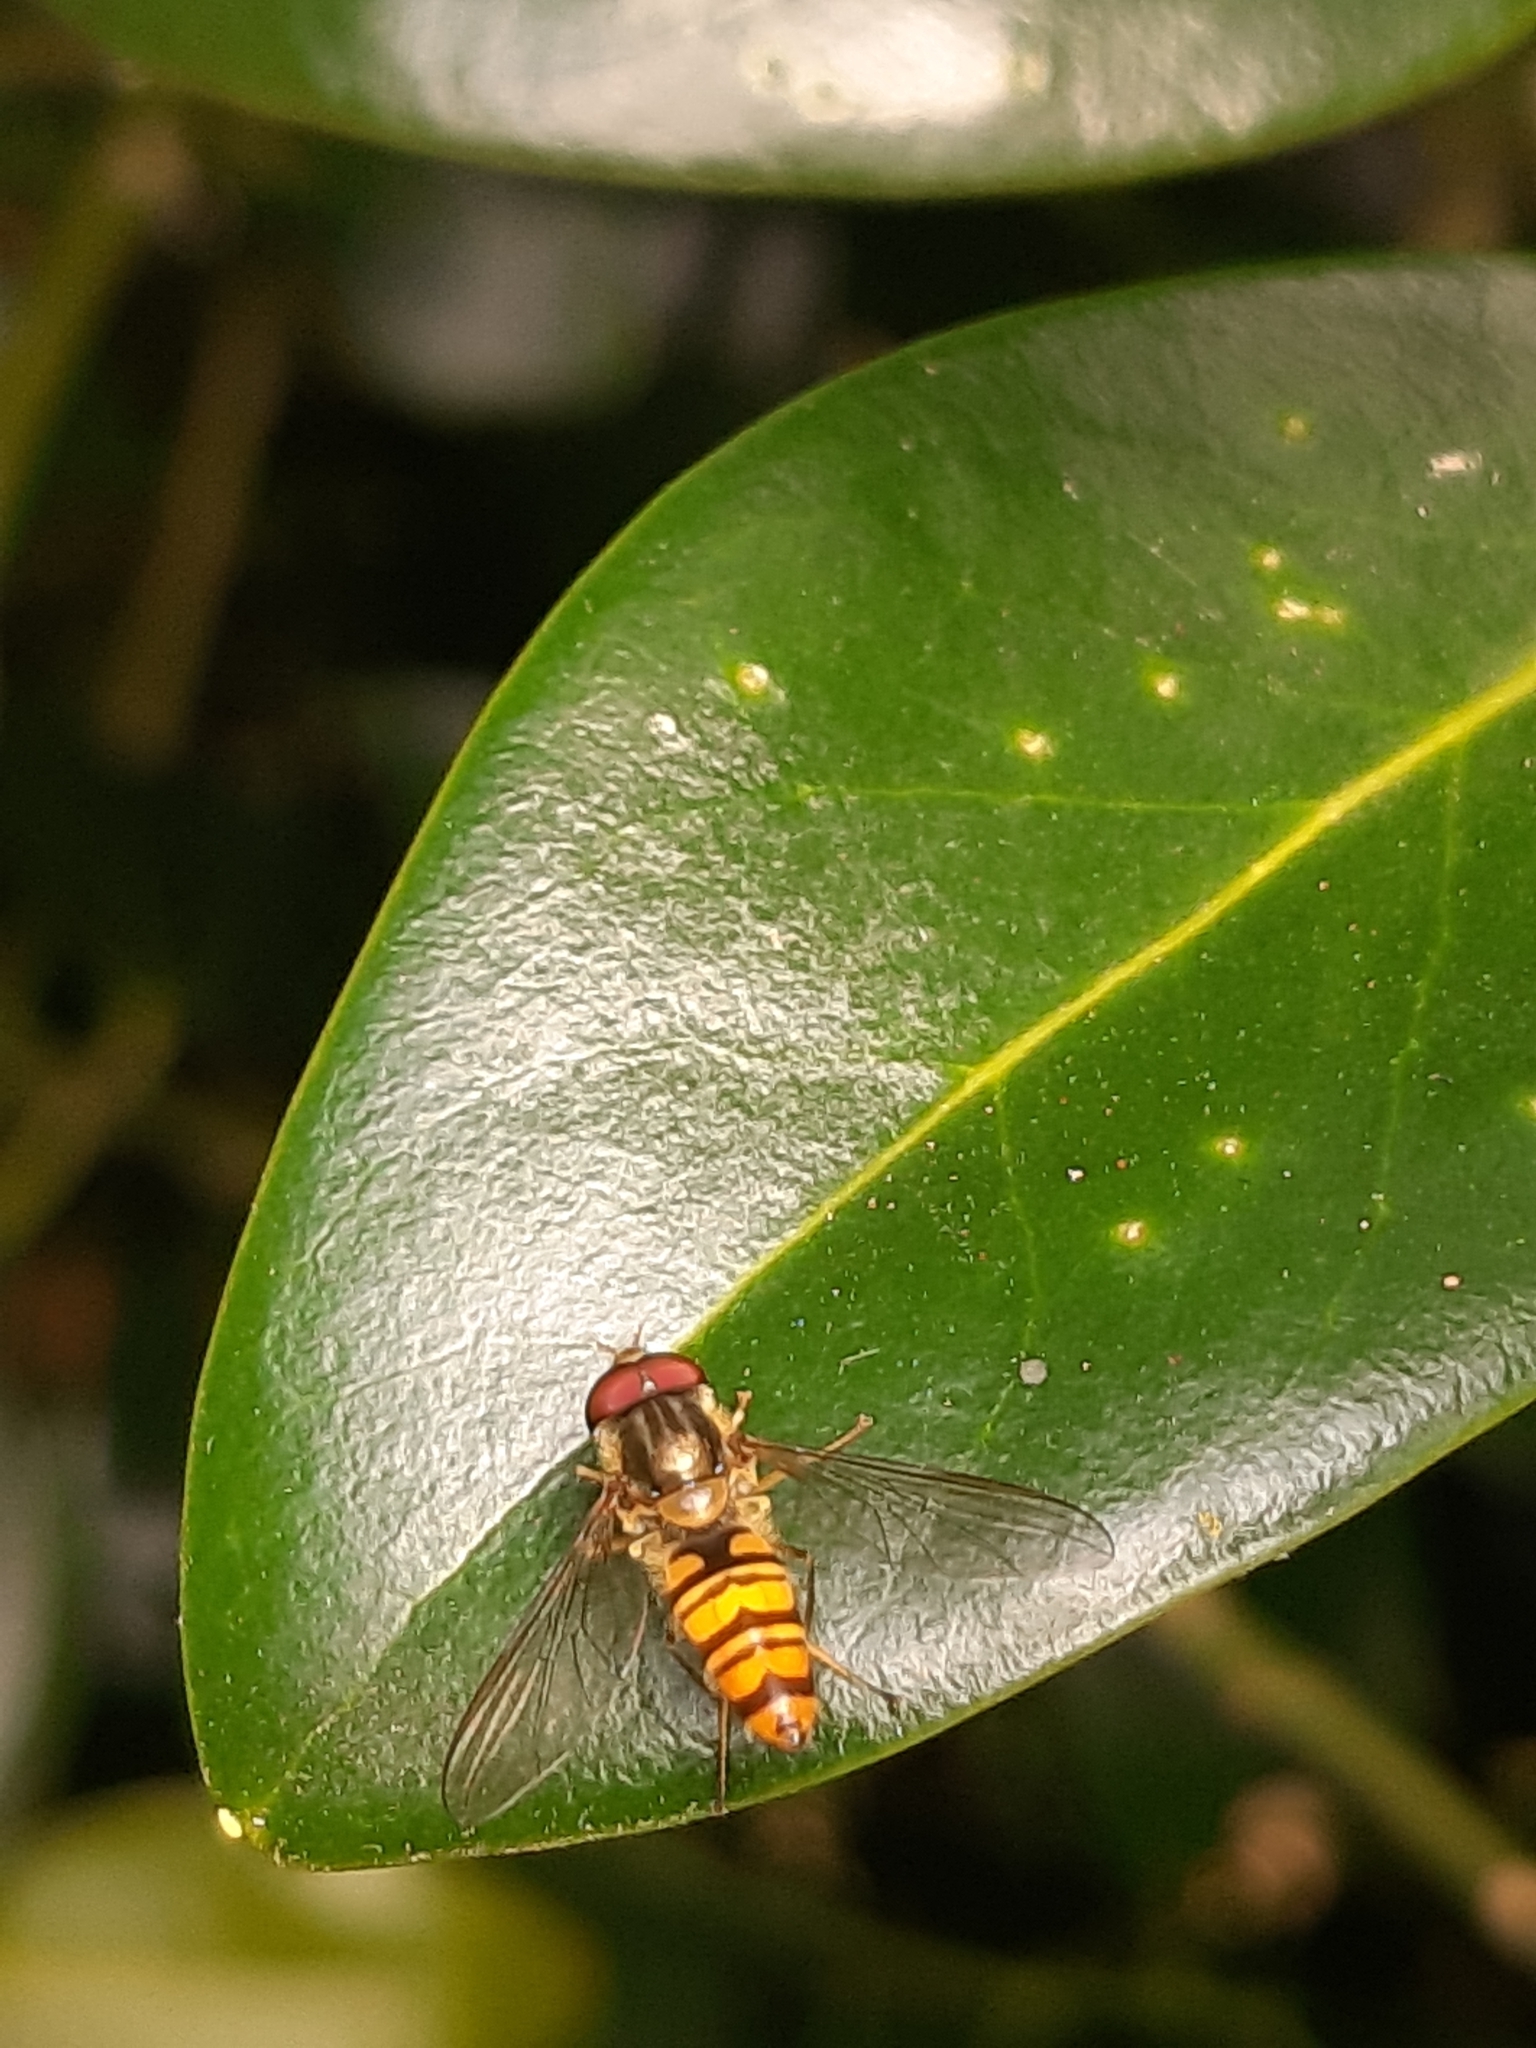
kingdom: Animalia
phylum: Arthropoda
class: Insecta
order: Diptera
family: Syrphidae
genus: Episyrphus
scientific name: Episyrphus balteatus
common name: Marmalade hoverfly
